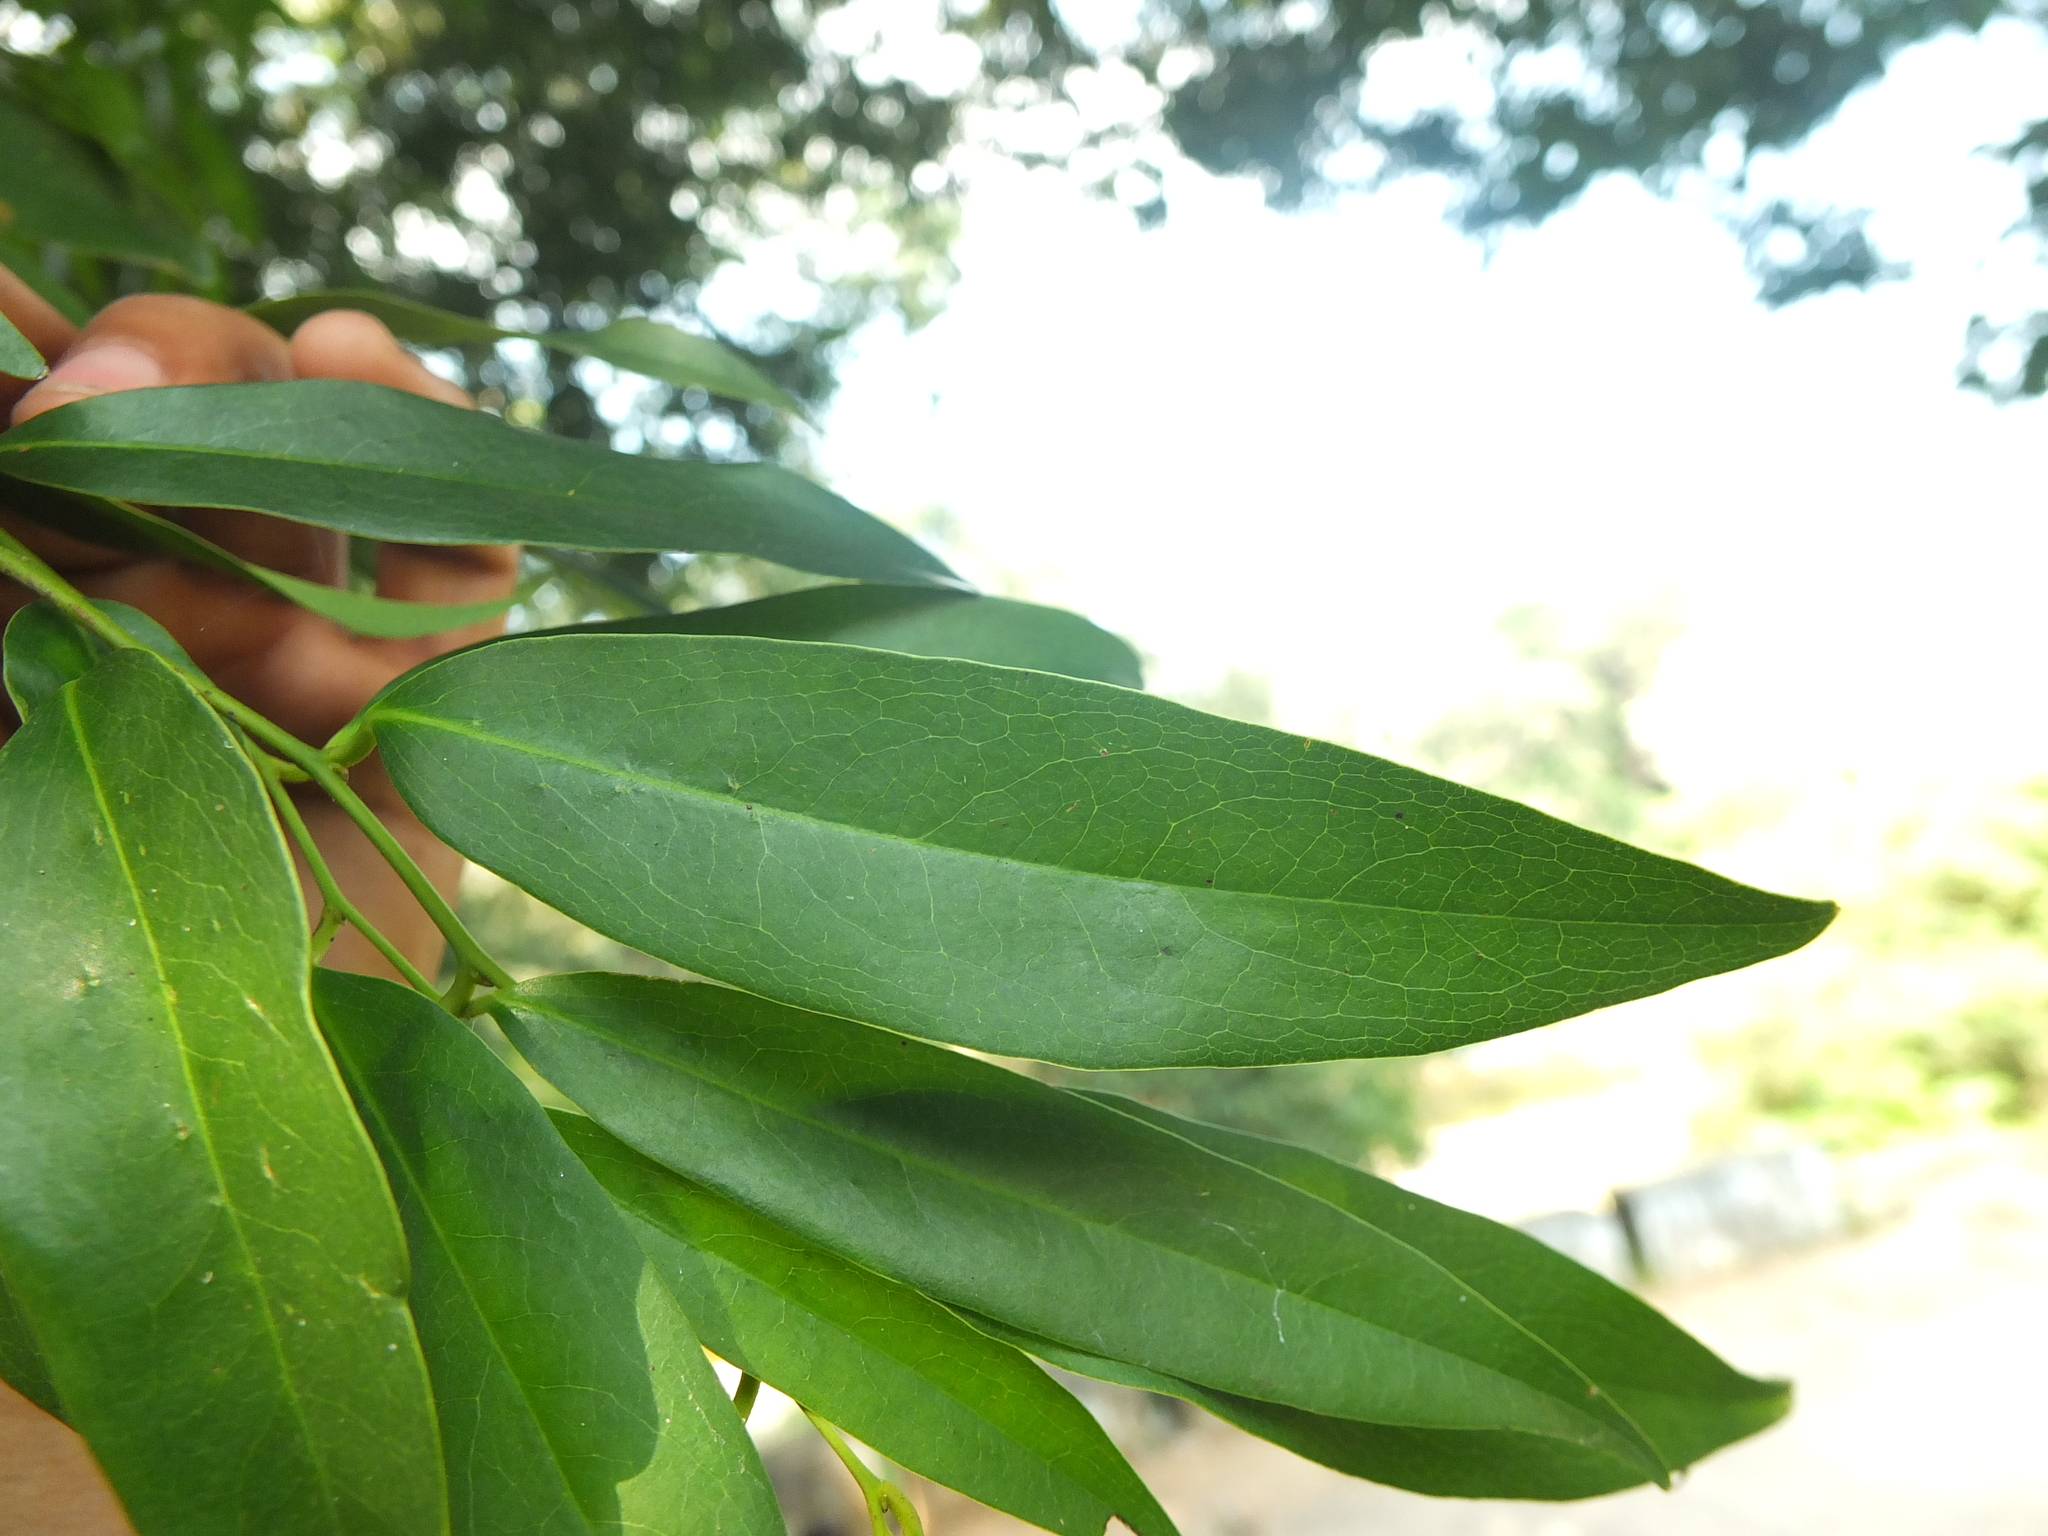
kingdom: Plantae
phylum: Tracheophyta
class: Magnoliopsida
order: Ericales
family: Ebenaceae
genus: Diospyros
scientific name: Diospyros atrata
